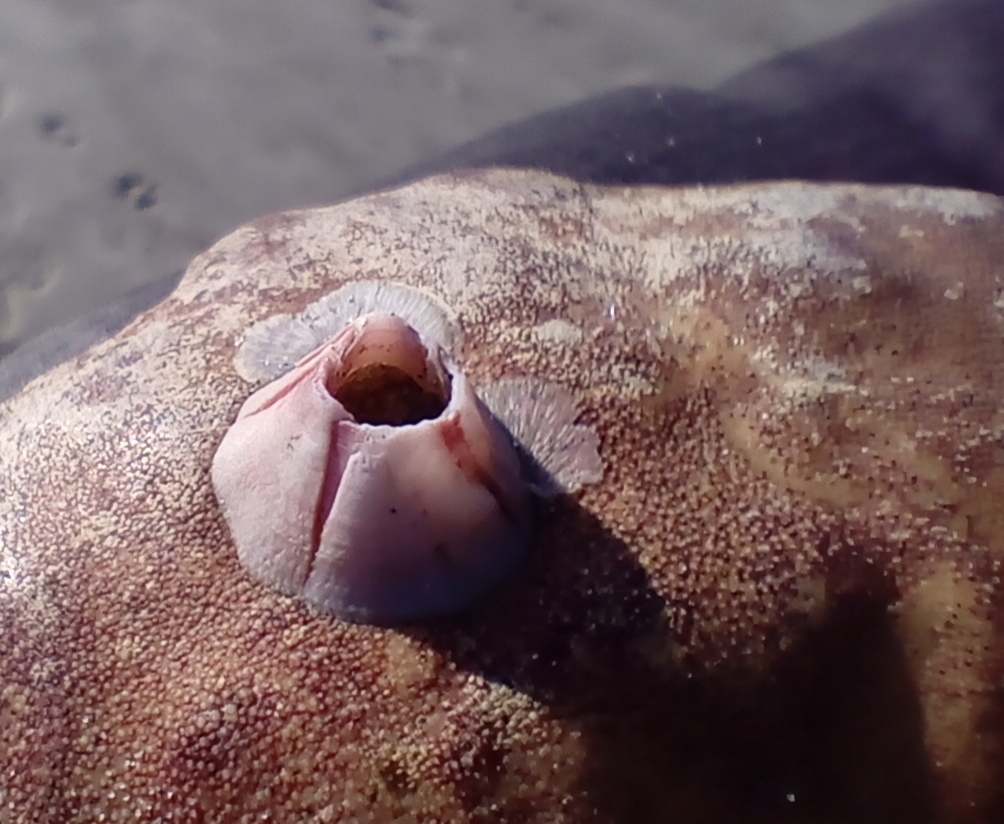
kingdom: Animalia
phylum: Arthropoda
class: Maxillopoda
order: Sessilia
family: Balanidae
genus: Notomegabalanus
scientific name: Notomegabalanus decorus
